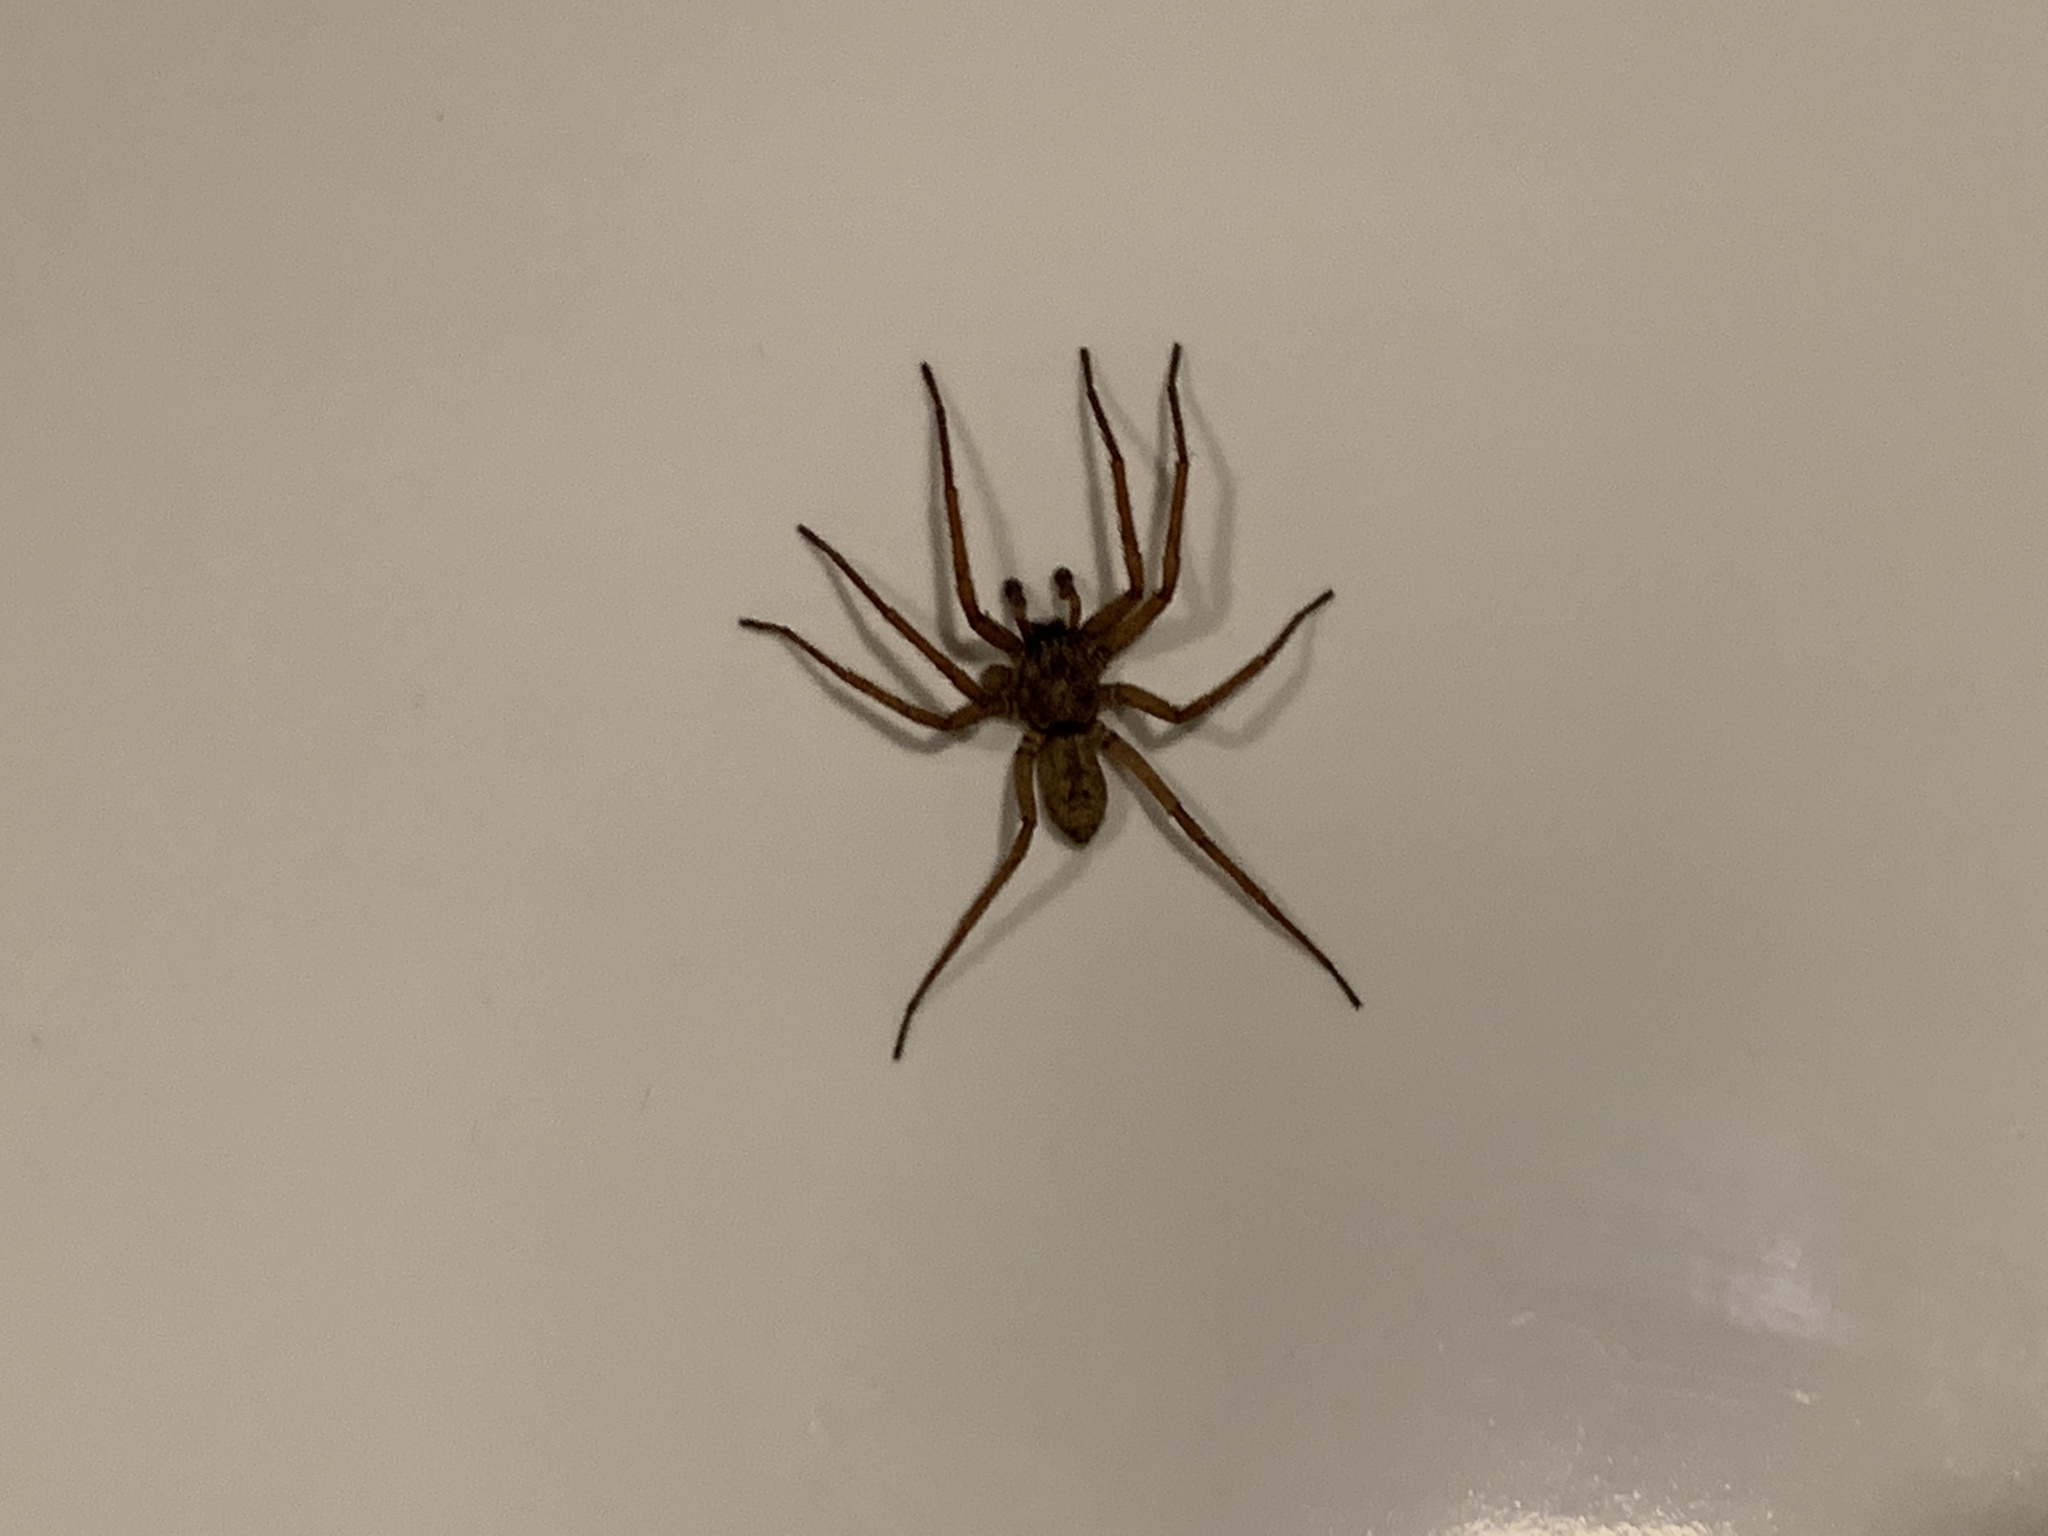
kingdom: Animalia
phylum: Arthropoda
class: Arachnida
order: Araneae
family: Zoropsidae
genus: Lauricius
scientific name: Lauricius hooki
